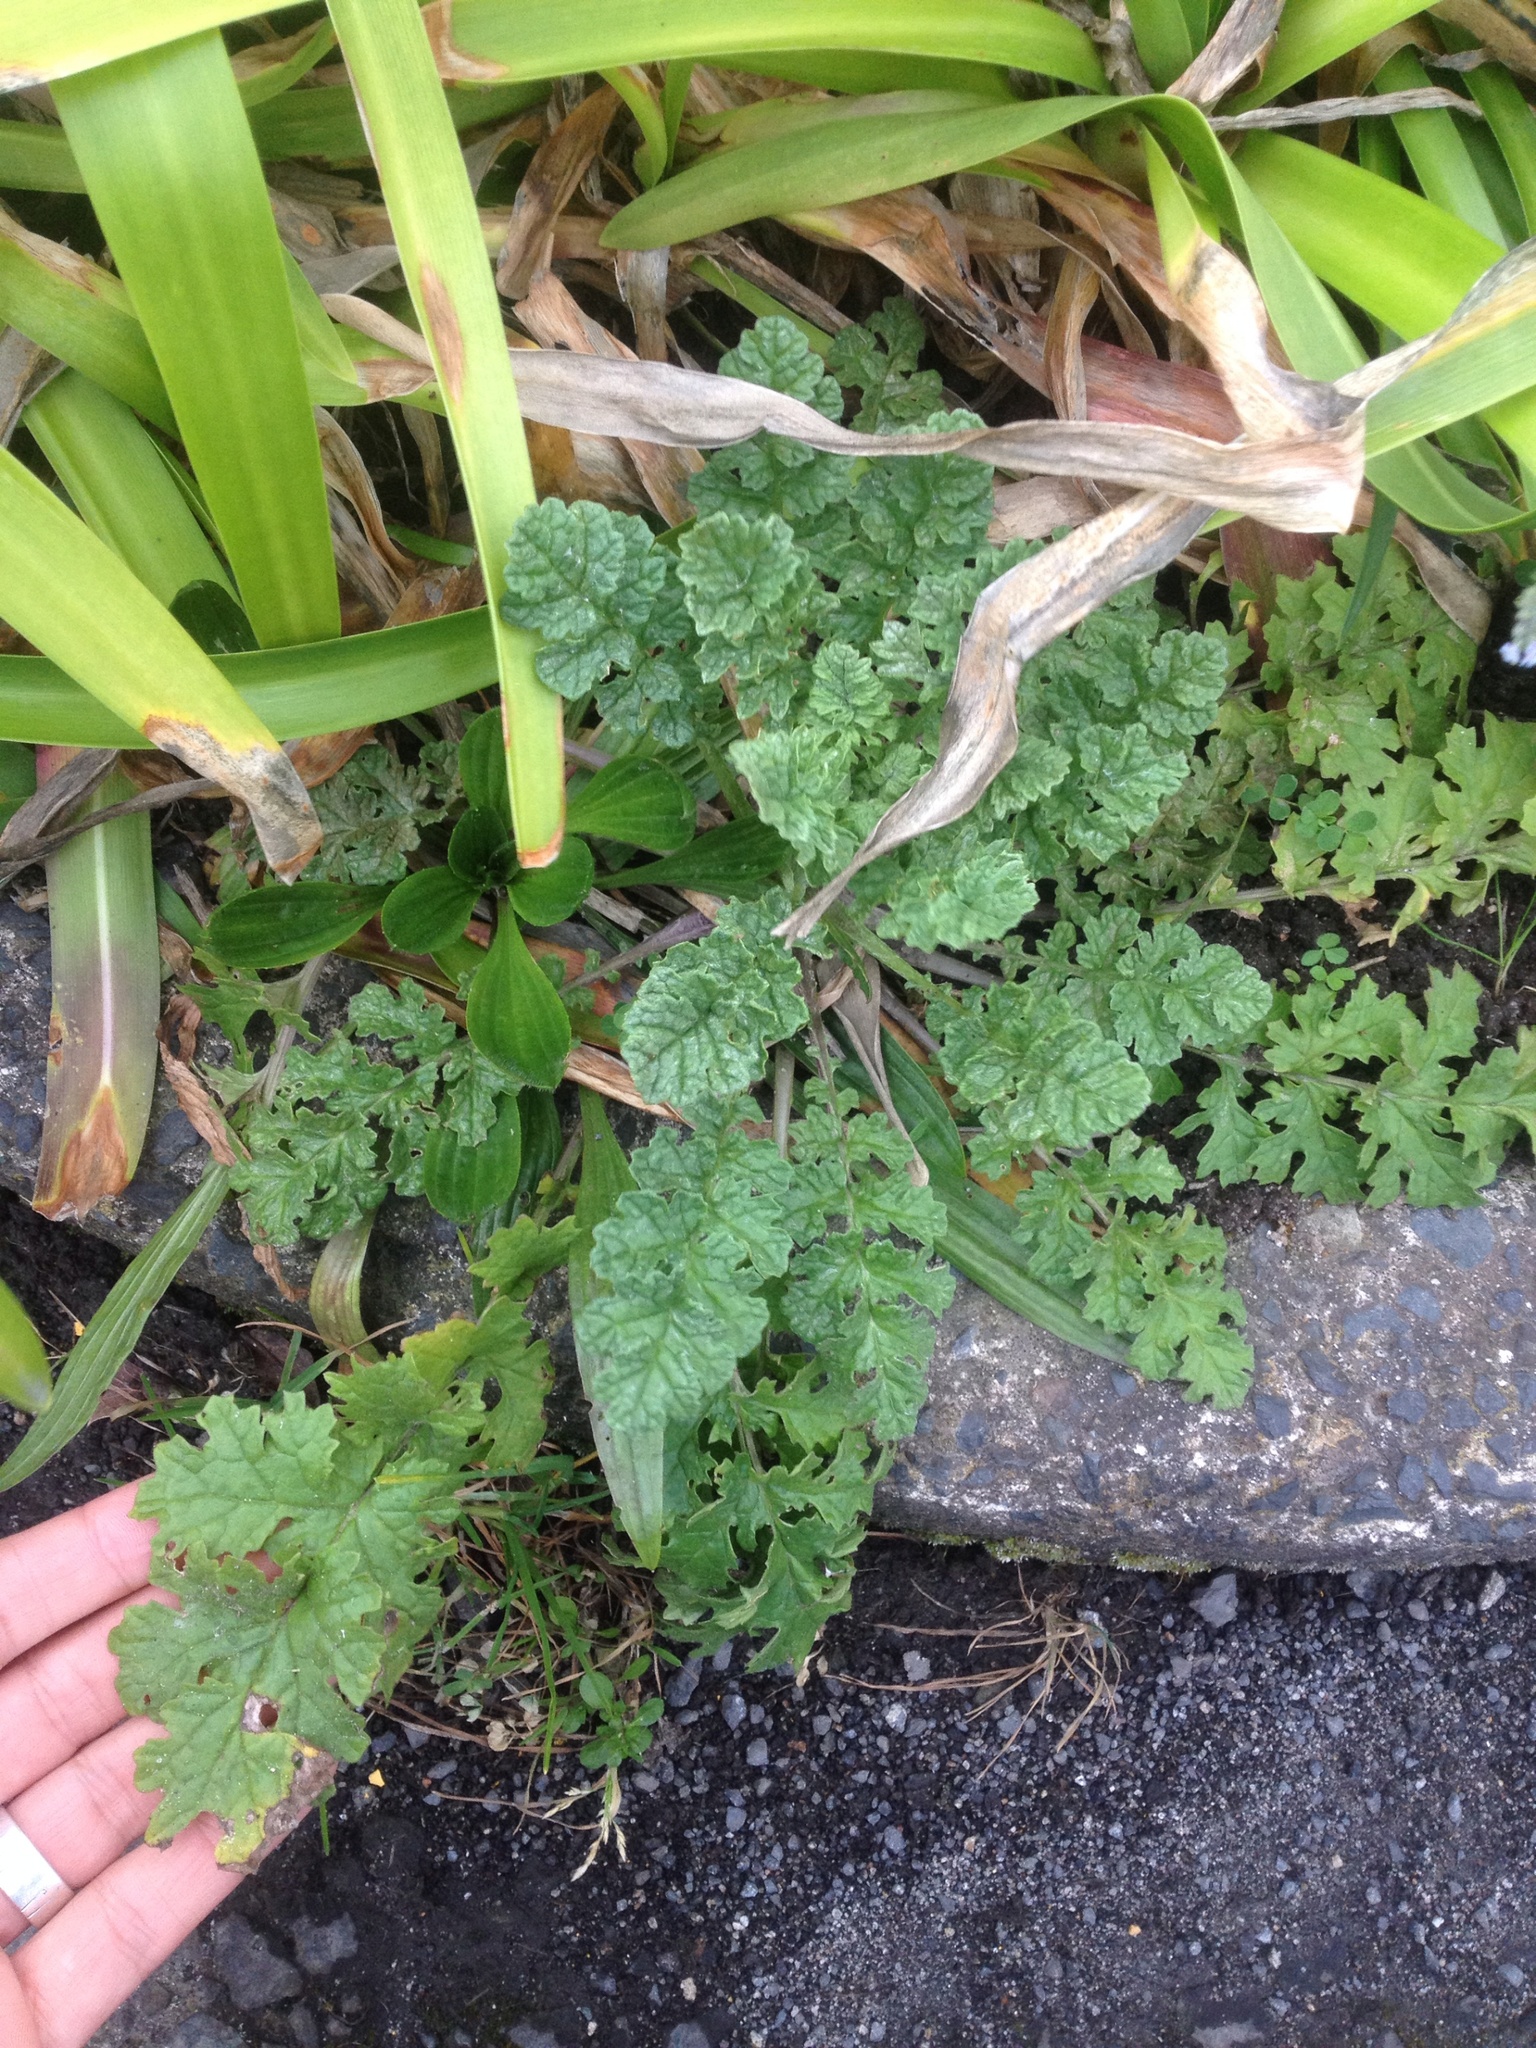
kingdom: Plantae
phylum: Tracheophyta
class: Magnoliopsida
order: Asterales
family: Asteraceae
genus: Jacobaea
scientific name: Jacobaea vulgaris
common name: Stinking willie
